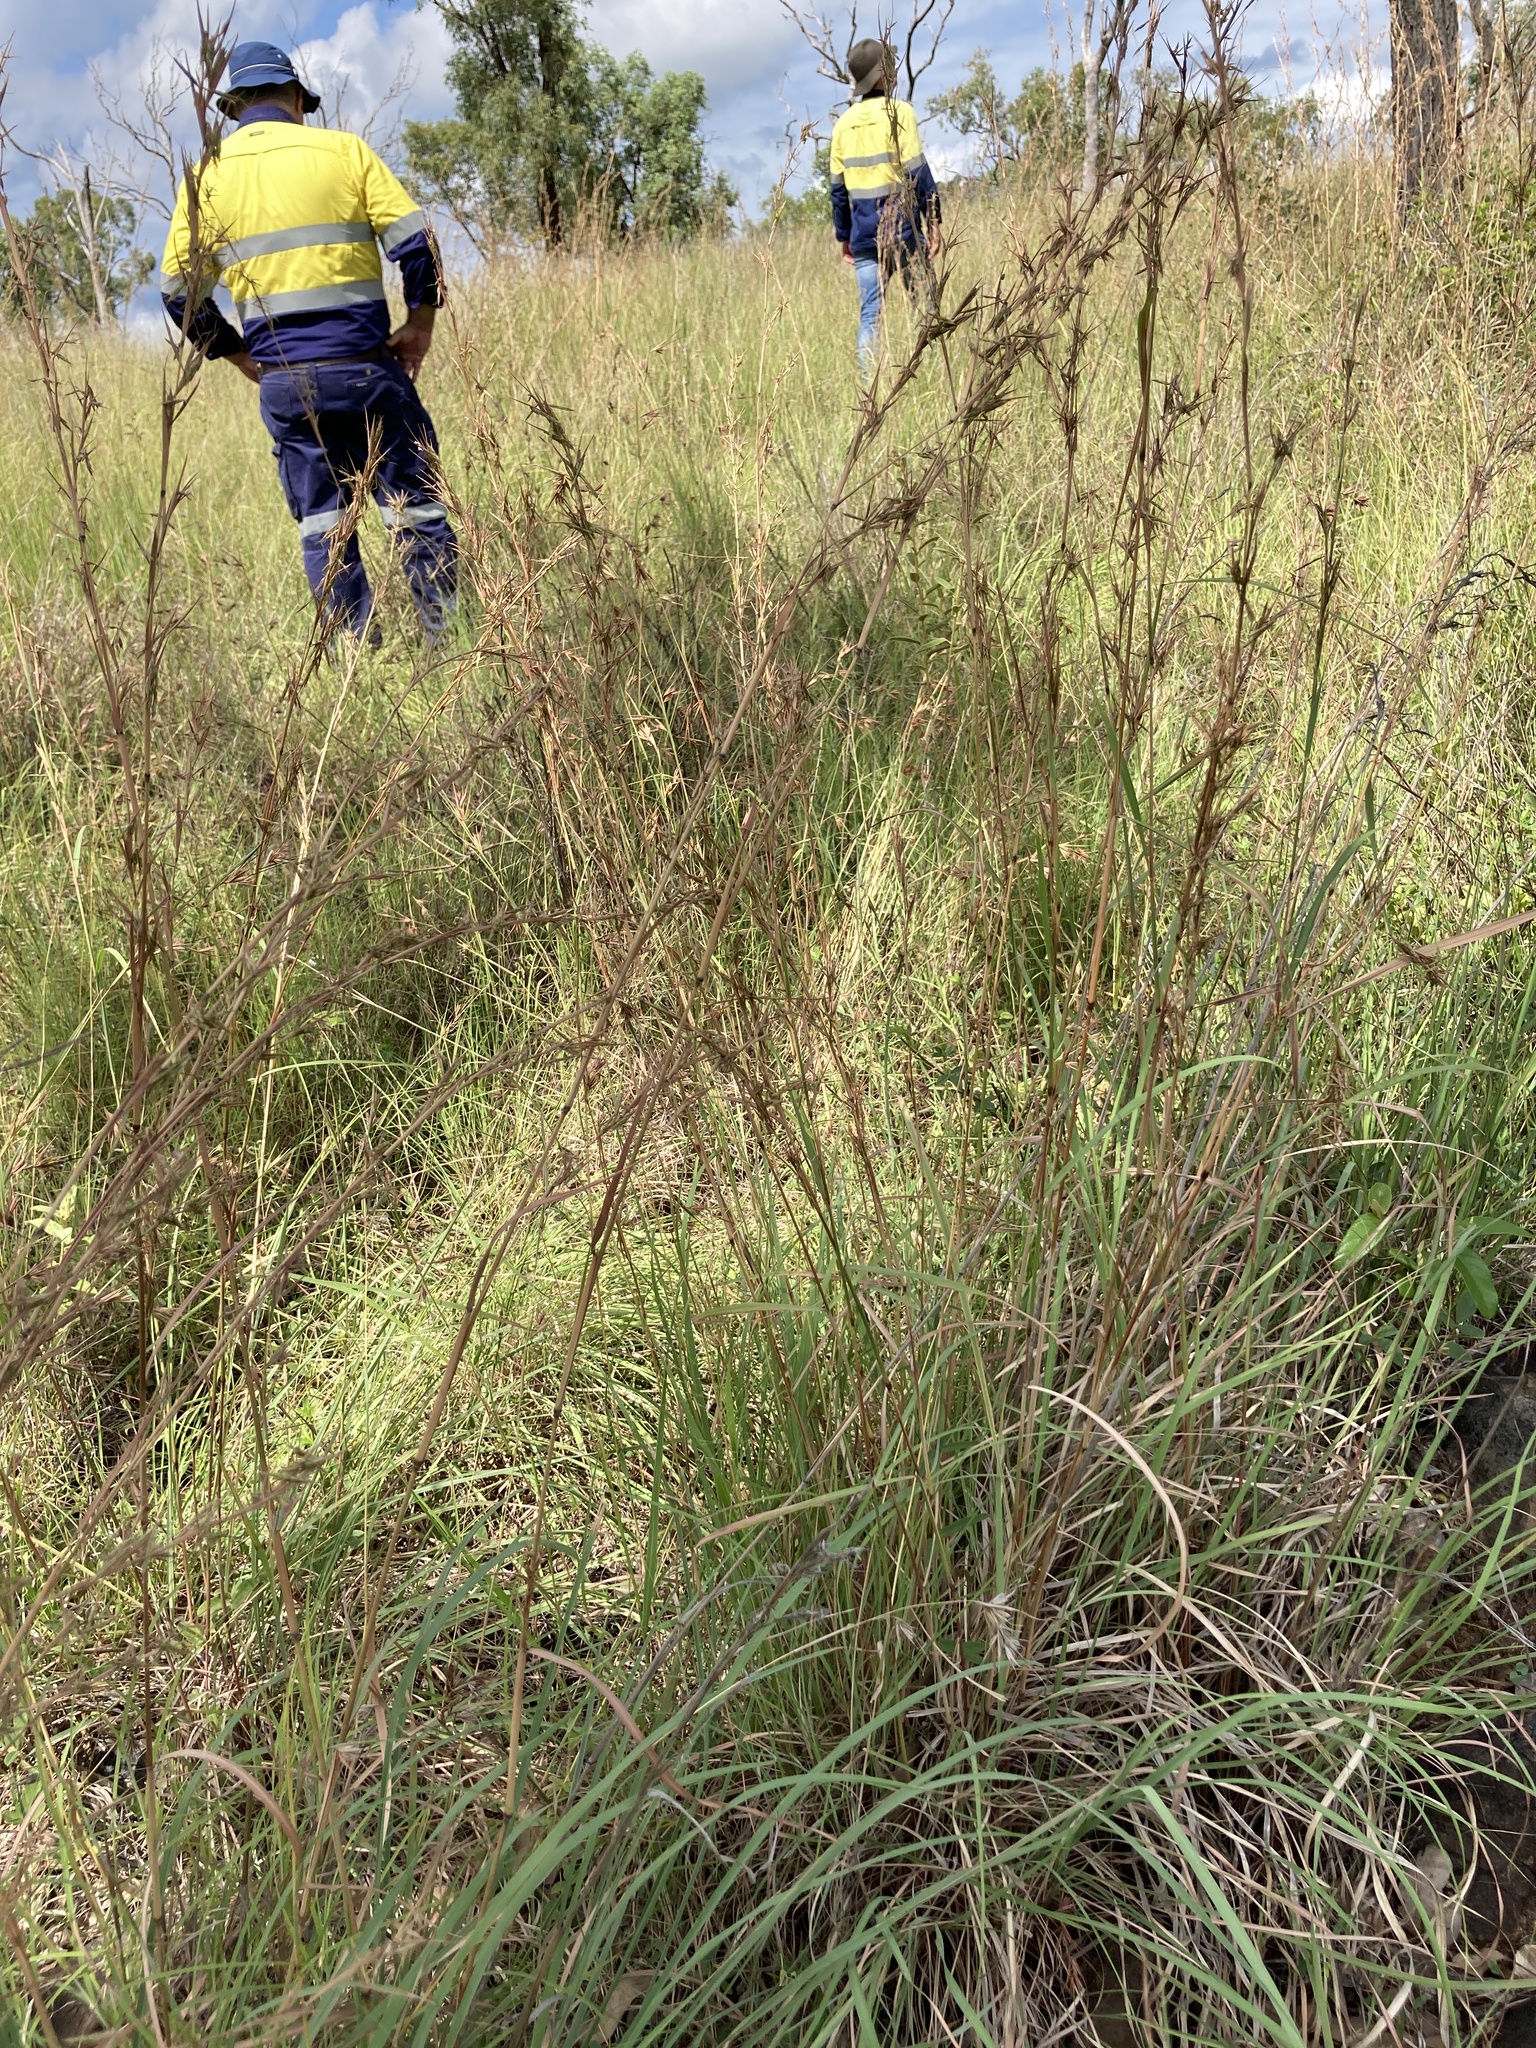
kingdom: Plantae
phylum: Tracheophyta
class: Liliopsida
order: Poales
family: Poaceae
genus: Cymbopogon
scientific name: Cymbopogon refractus
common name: Barbwire grass
